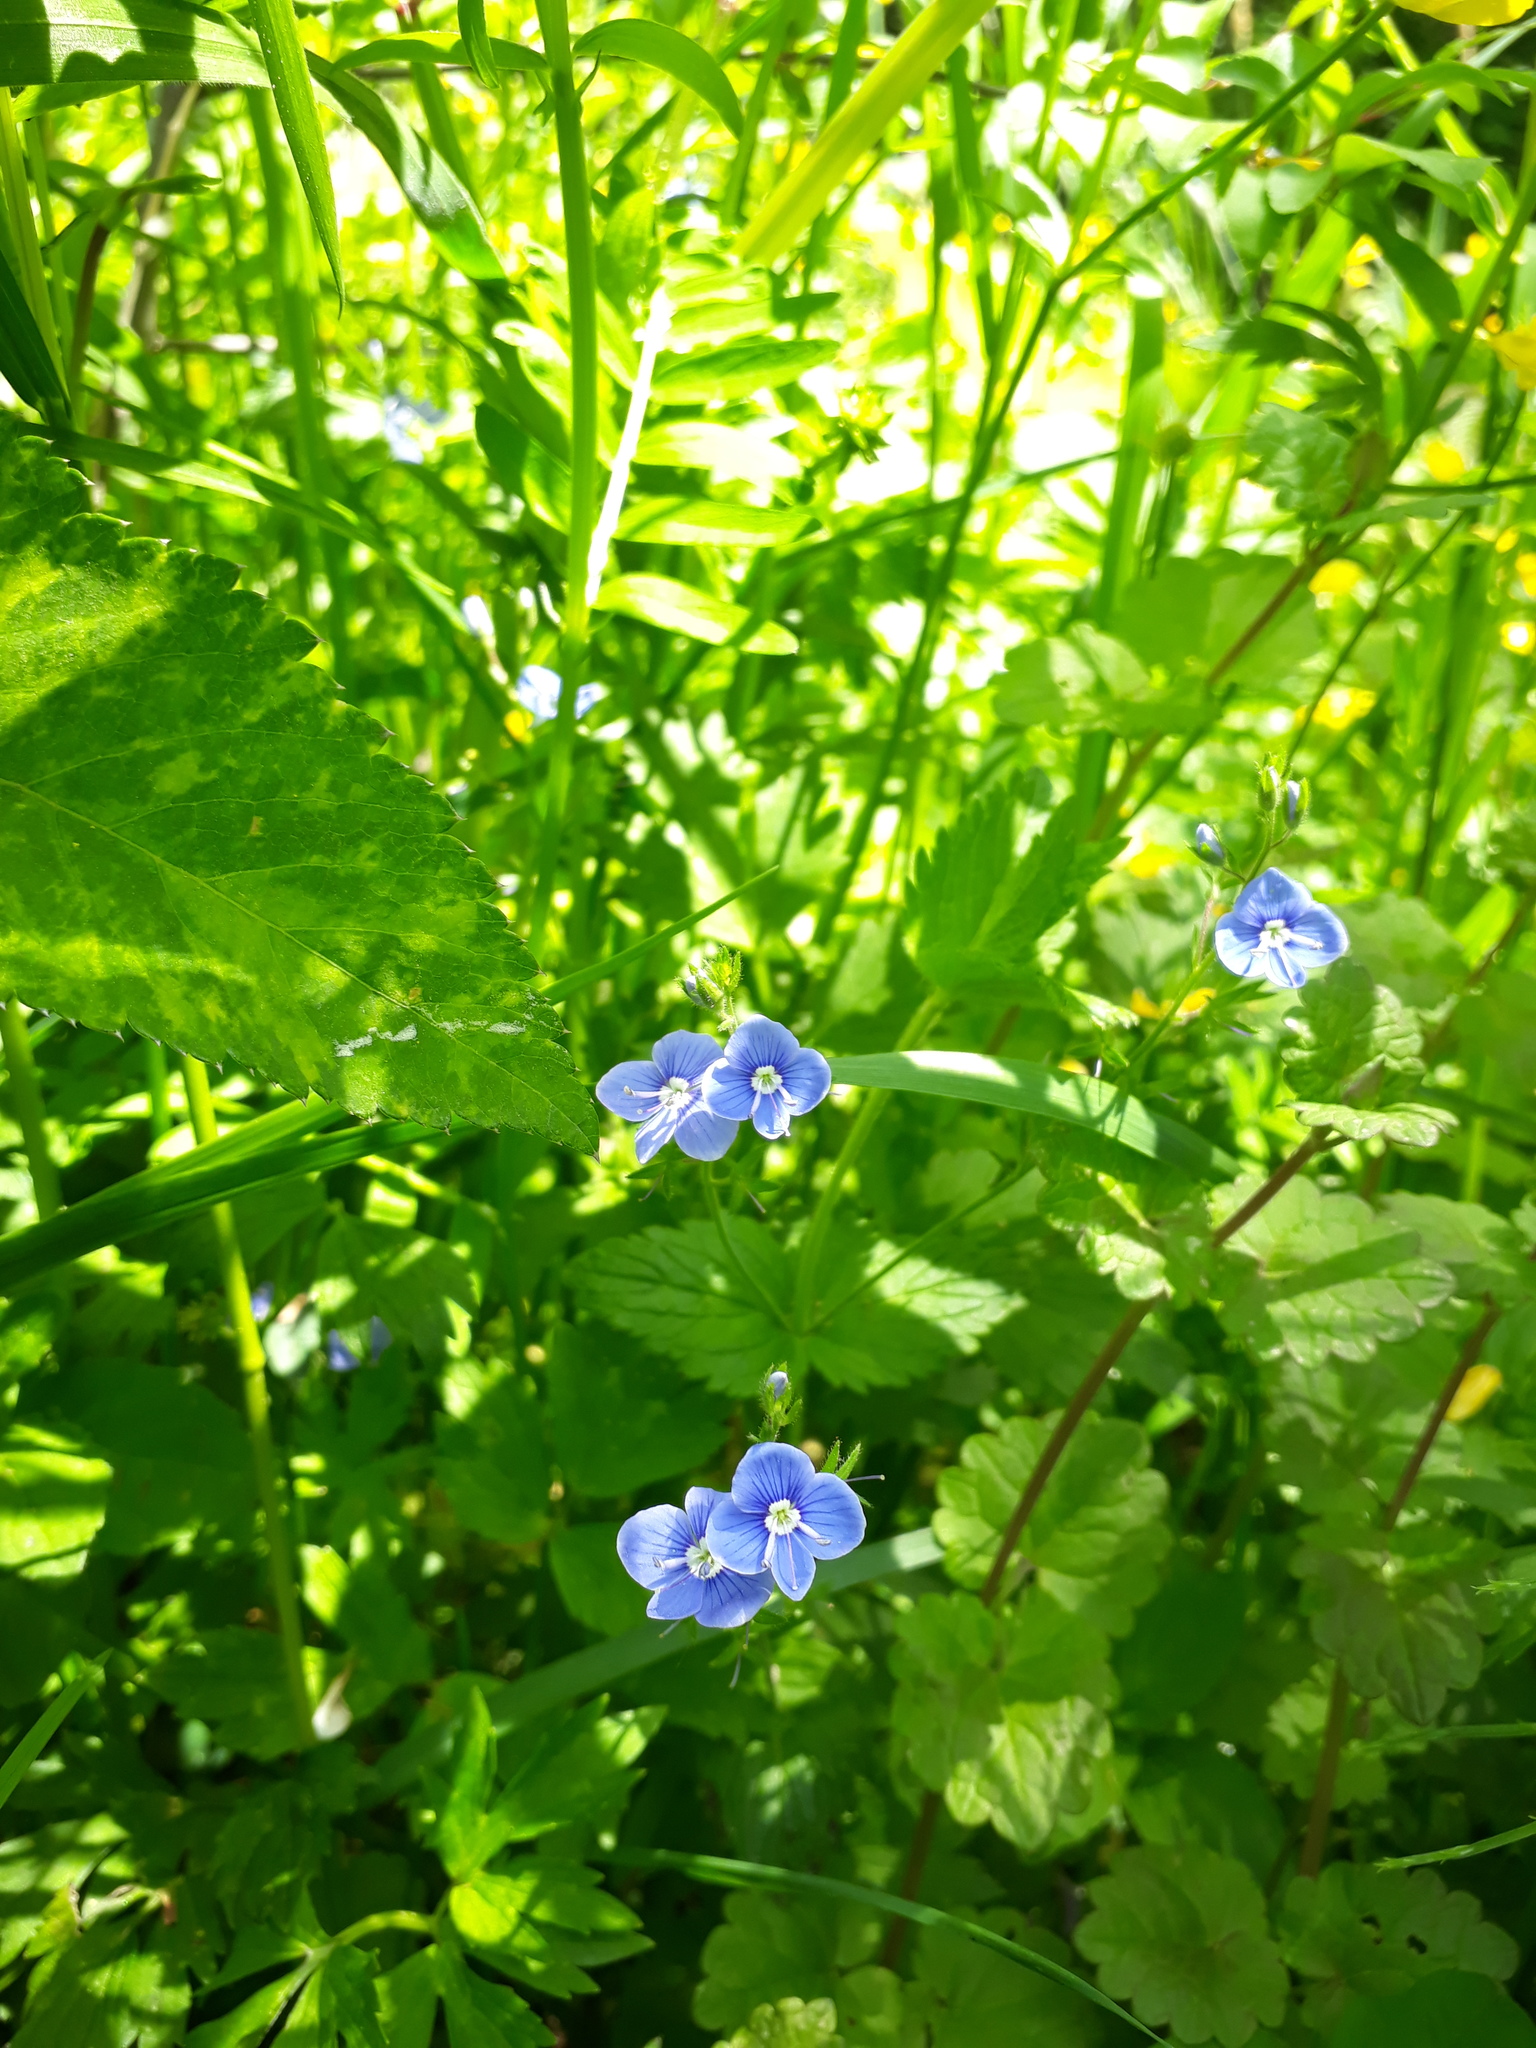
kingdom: Plantae
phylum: Tracheophyta
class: Magnoliopsida
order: Lamiales
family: Plantaginaceae
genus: Veronica
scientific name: Veronica chamaedrys
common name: Germander speedwell
